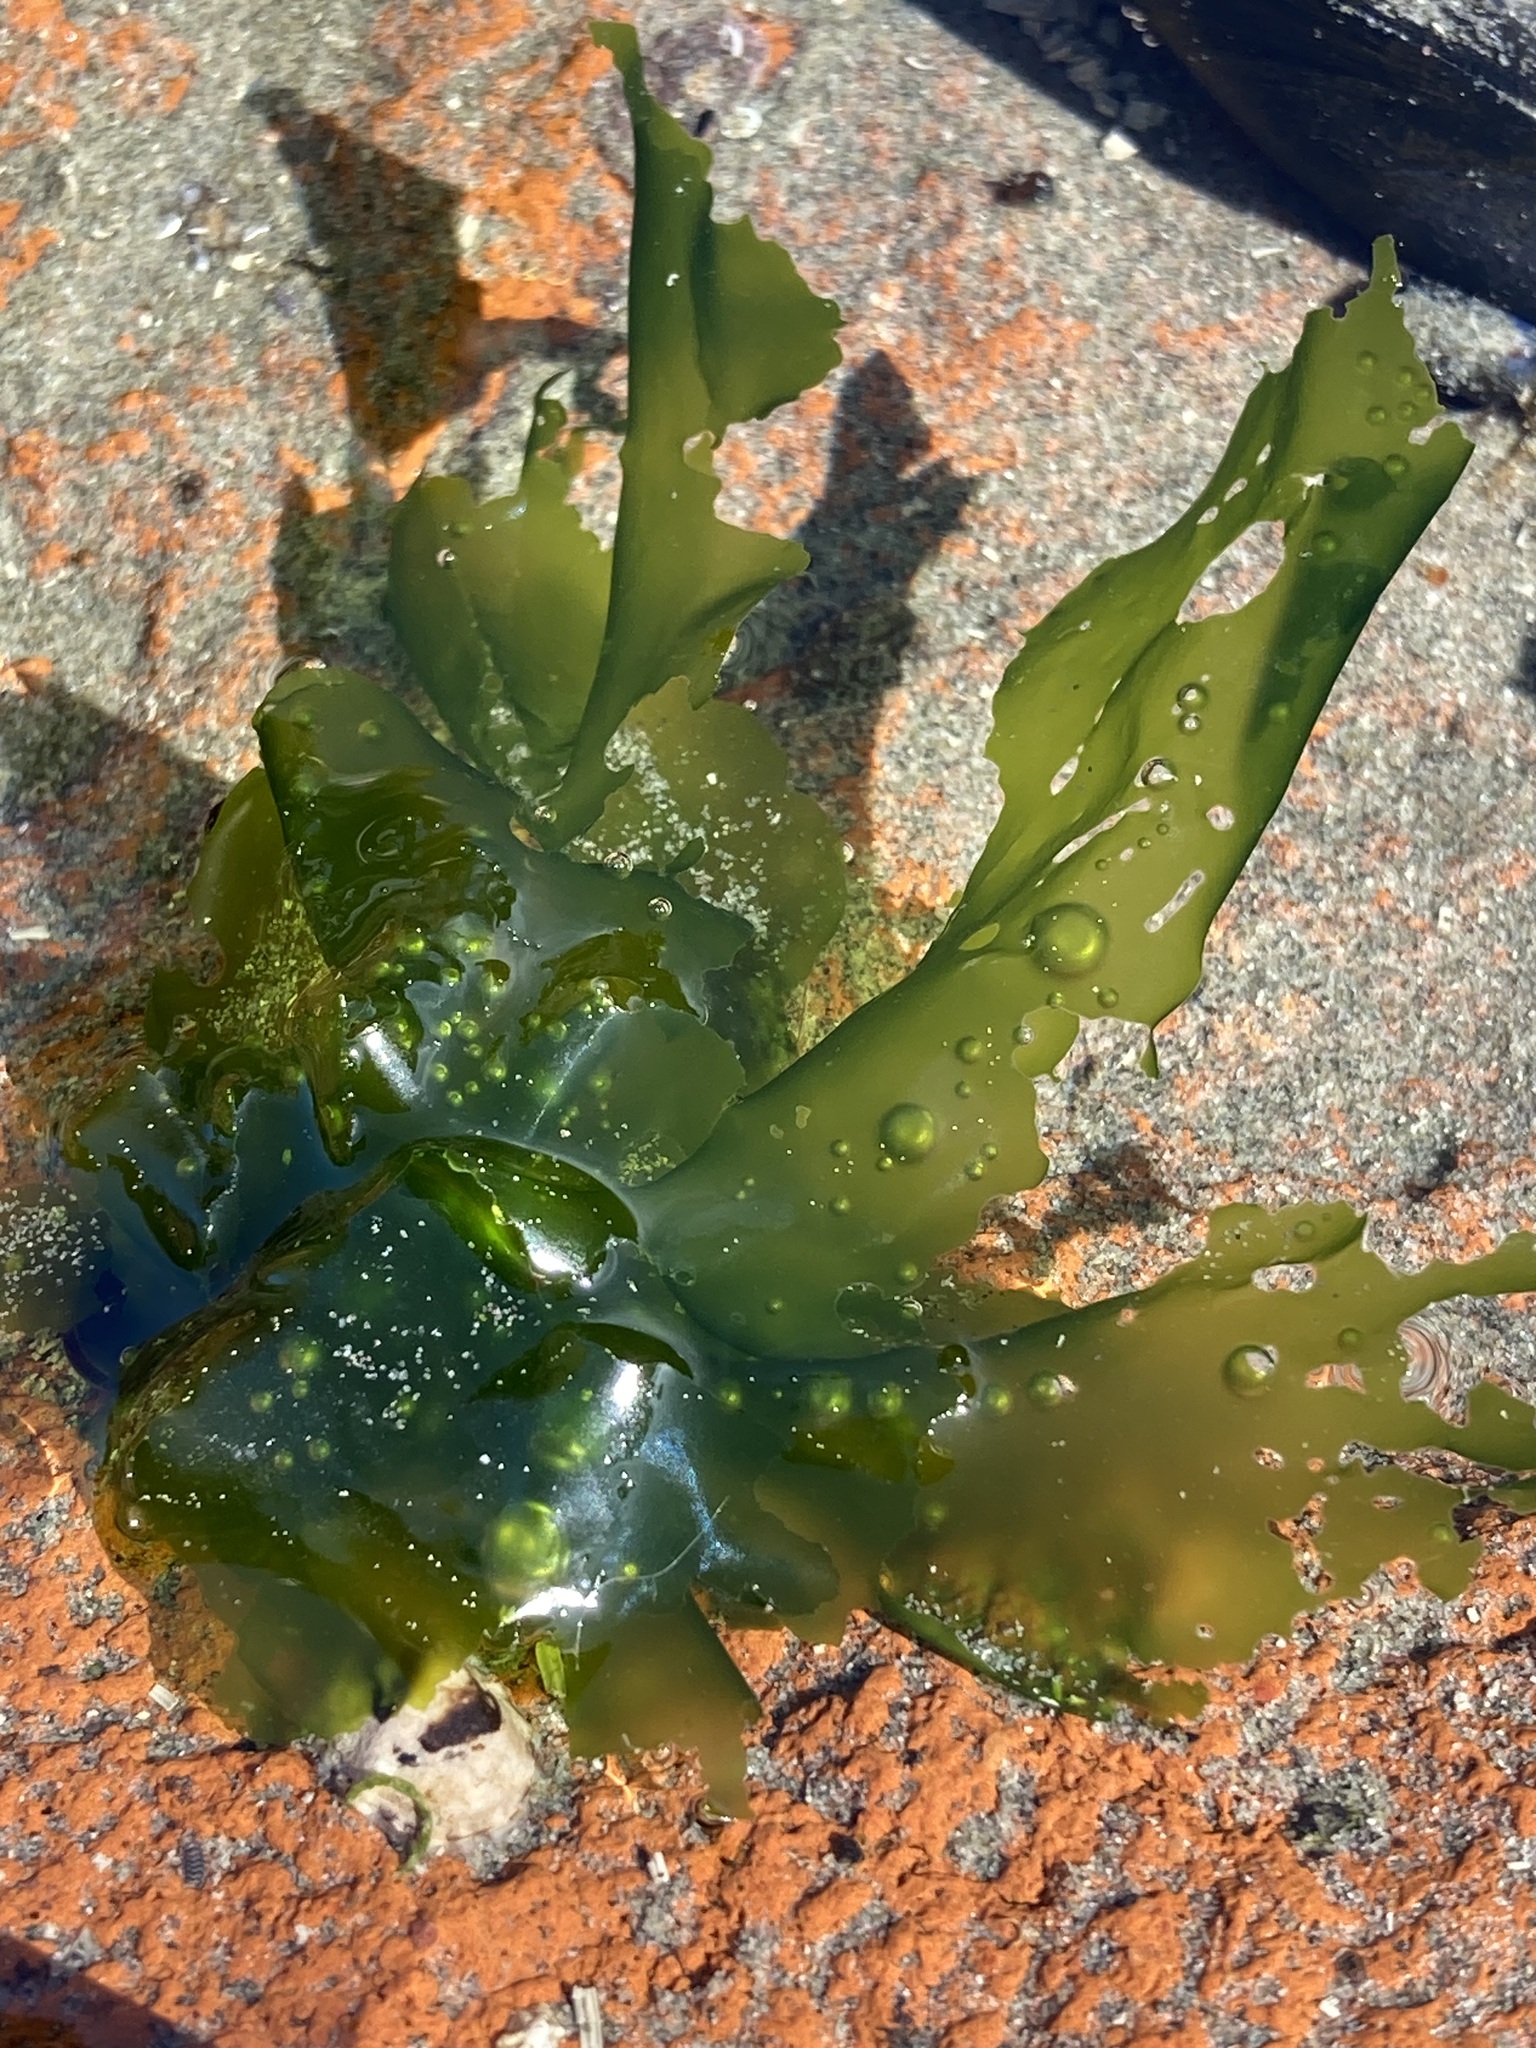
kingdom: Plantae
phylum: Chlorophyta
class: Ulvophyceae
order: Ulvales
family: Ulvaceae
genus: Ulva
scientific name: Ulva
